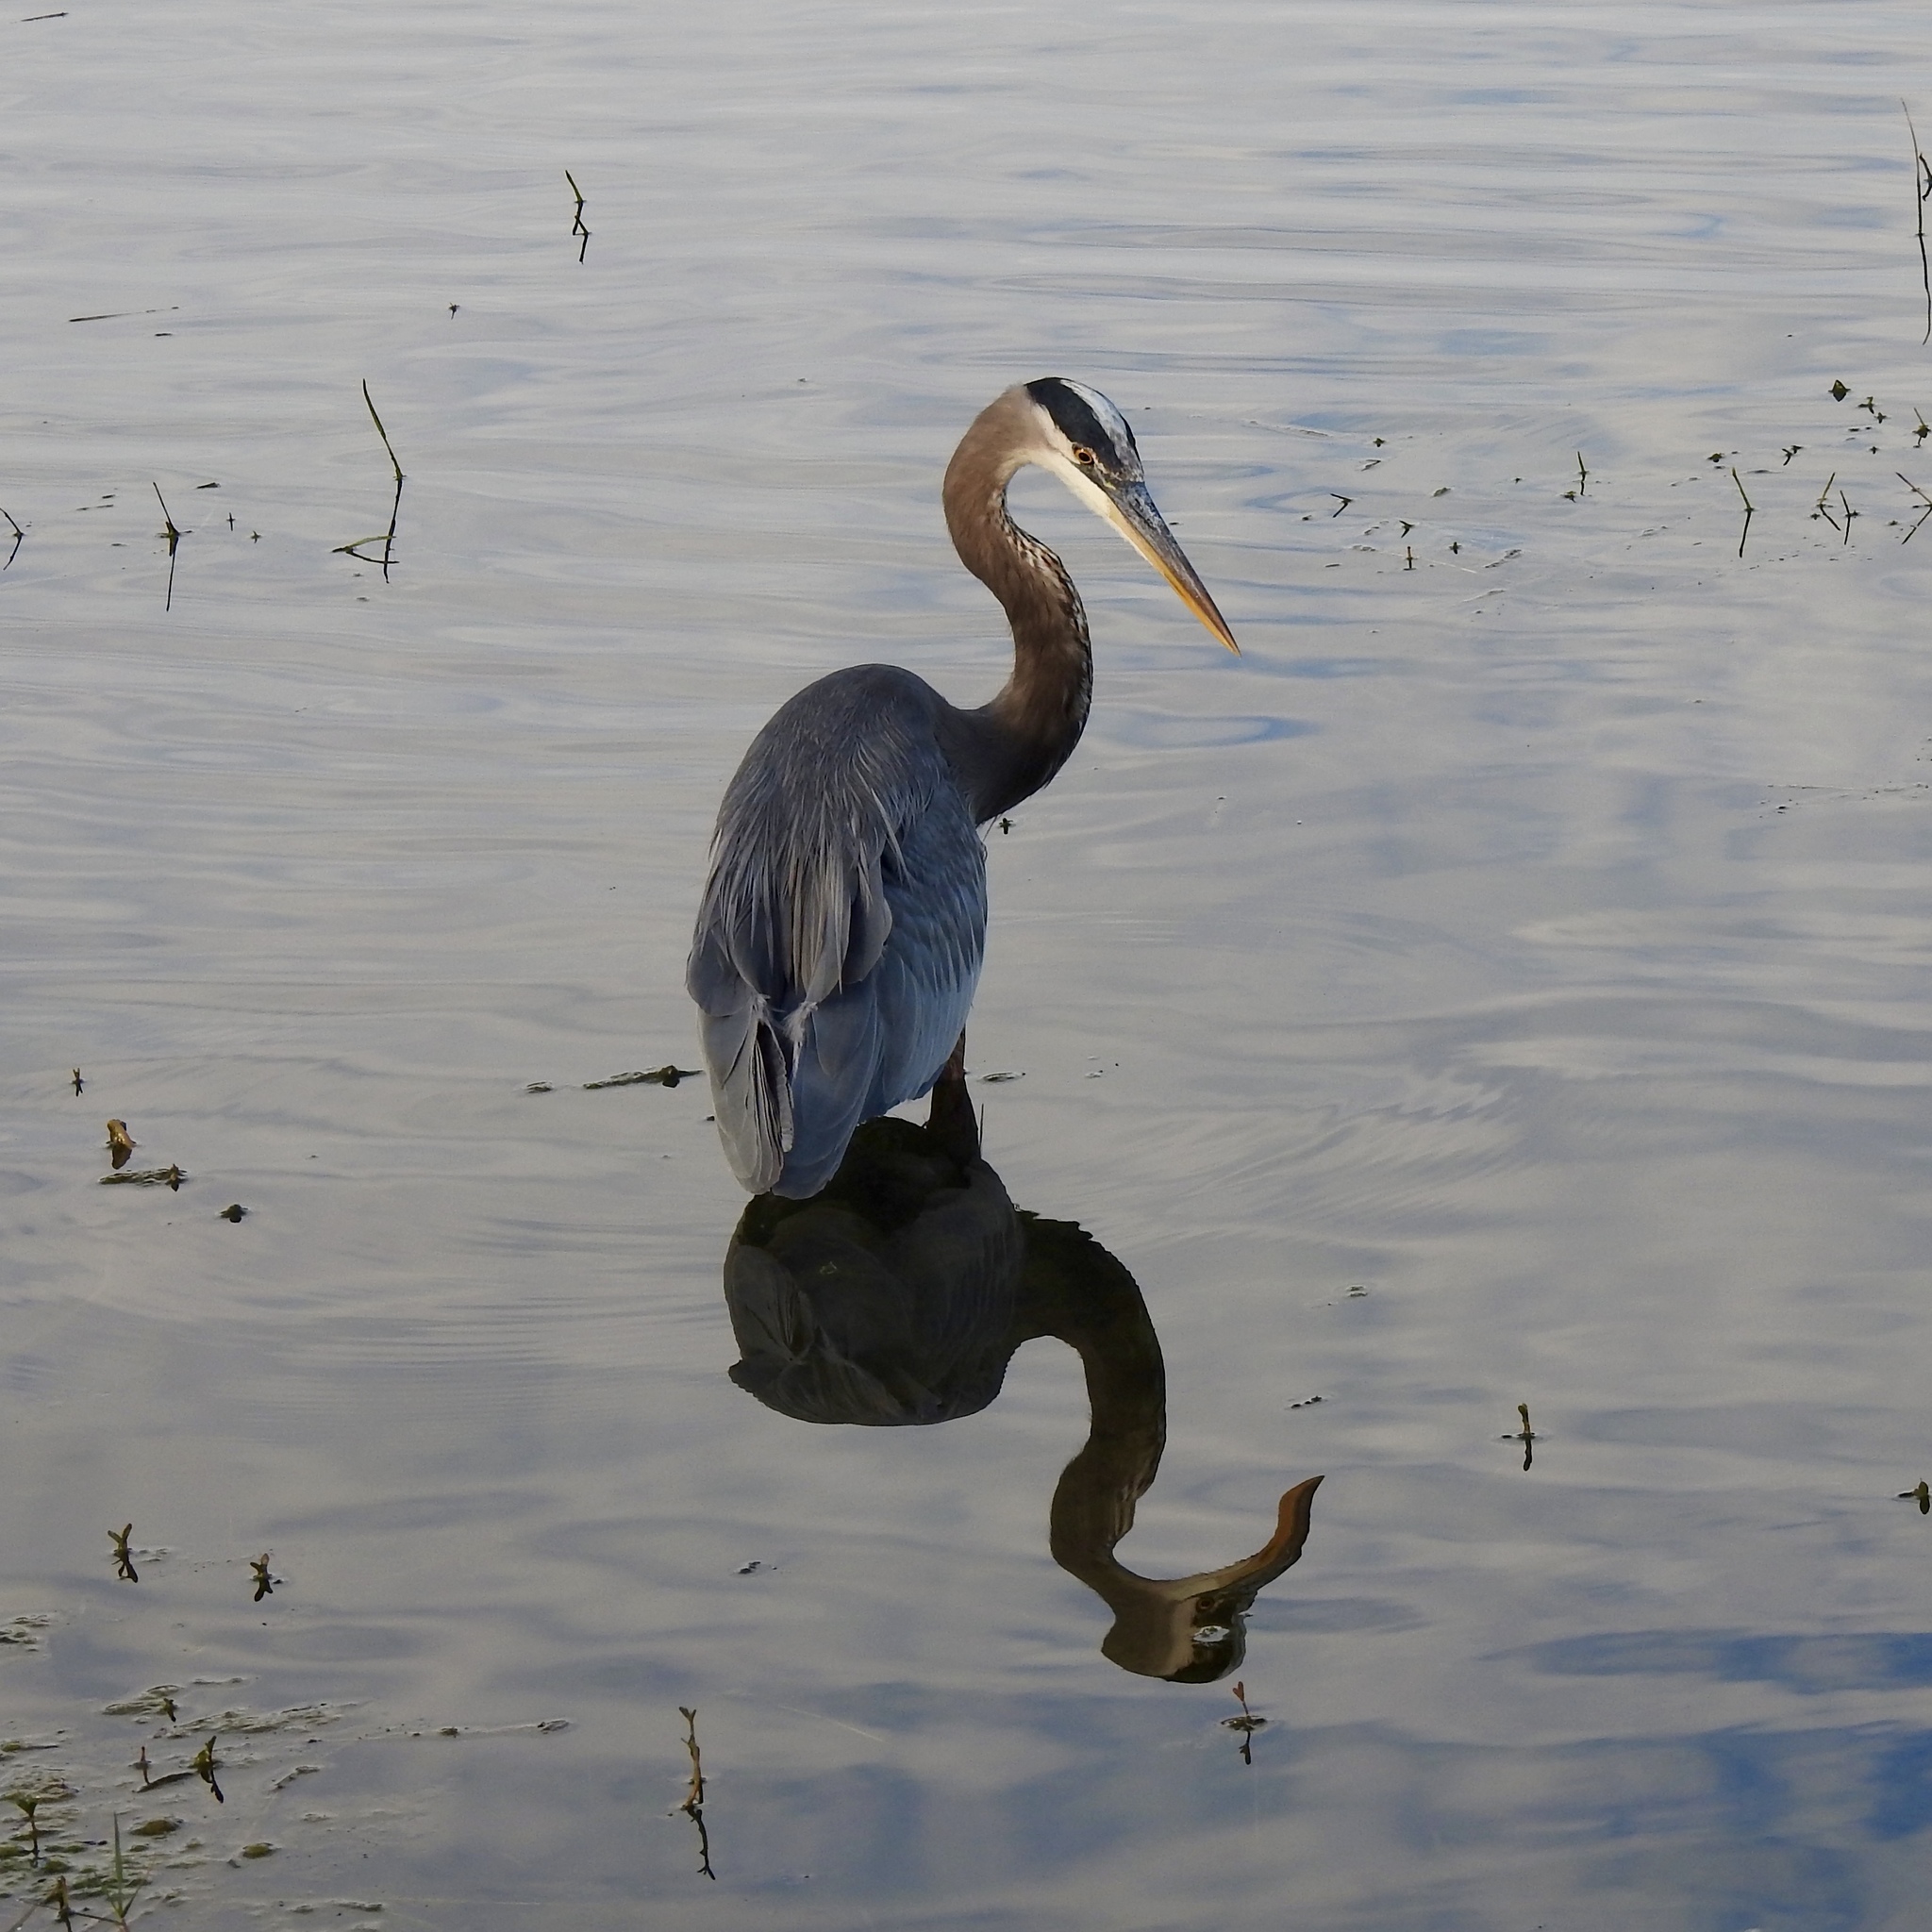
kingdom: Animalia
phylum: Chordata
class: Aves
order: Pelecaniformes
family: Ardeidae
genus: Ardea
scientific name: Ardea herodias
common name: Great blue heron
